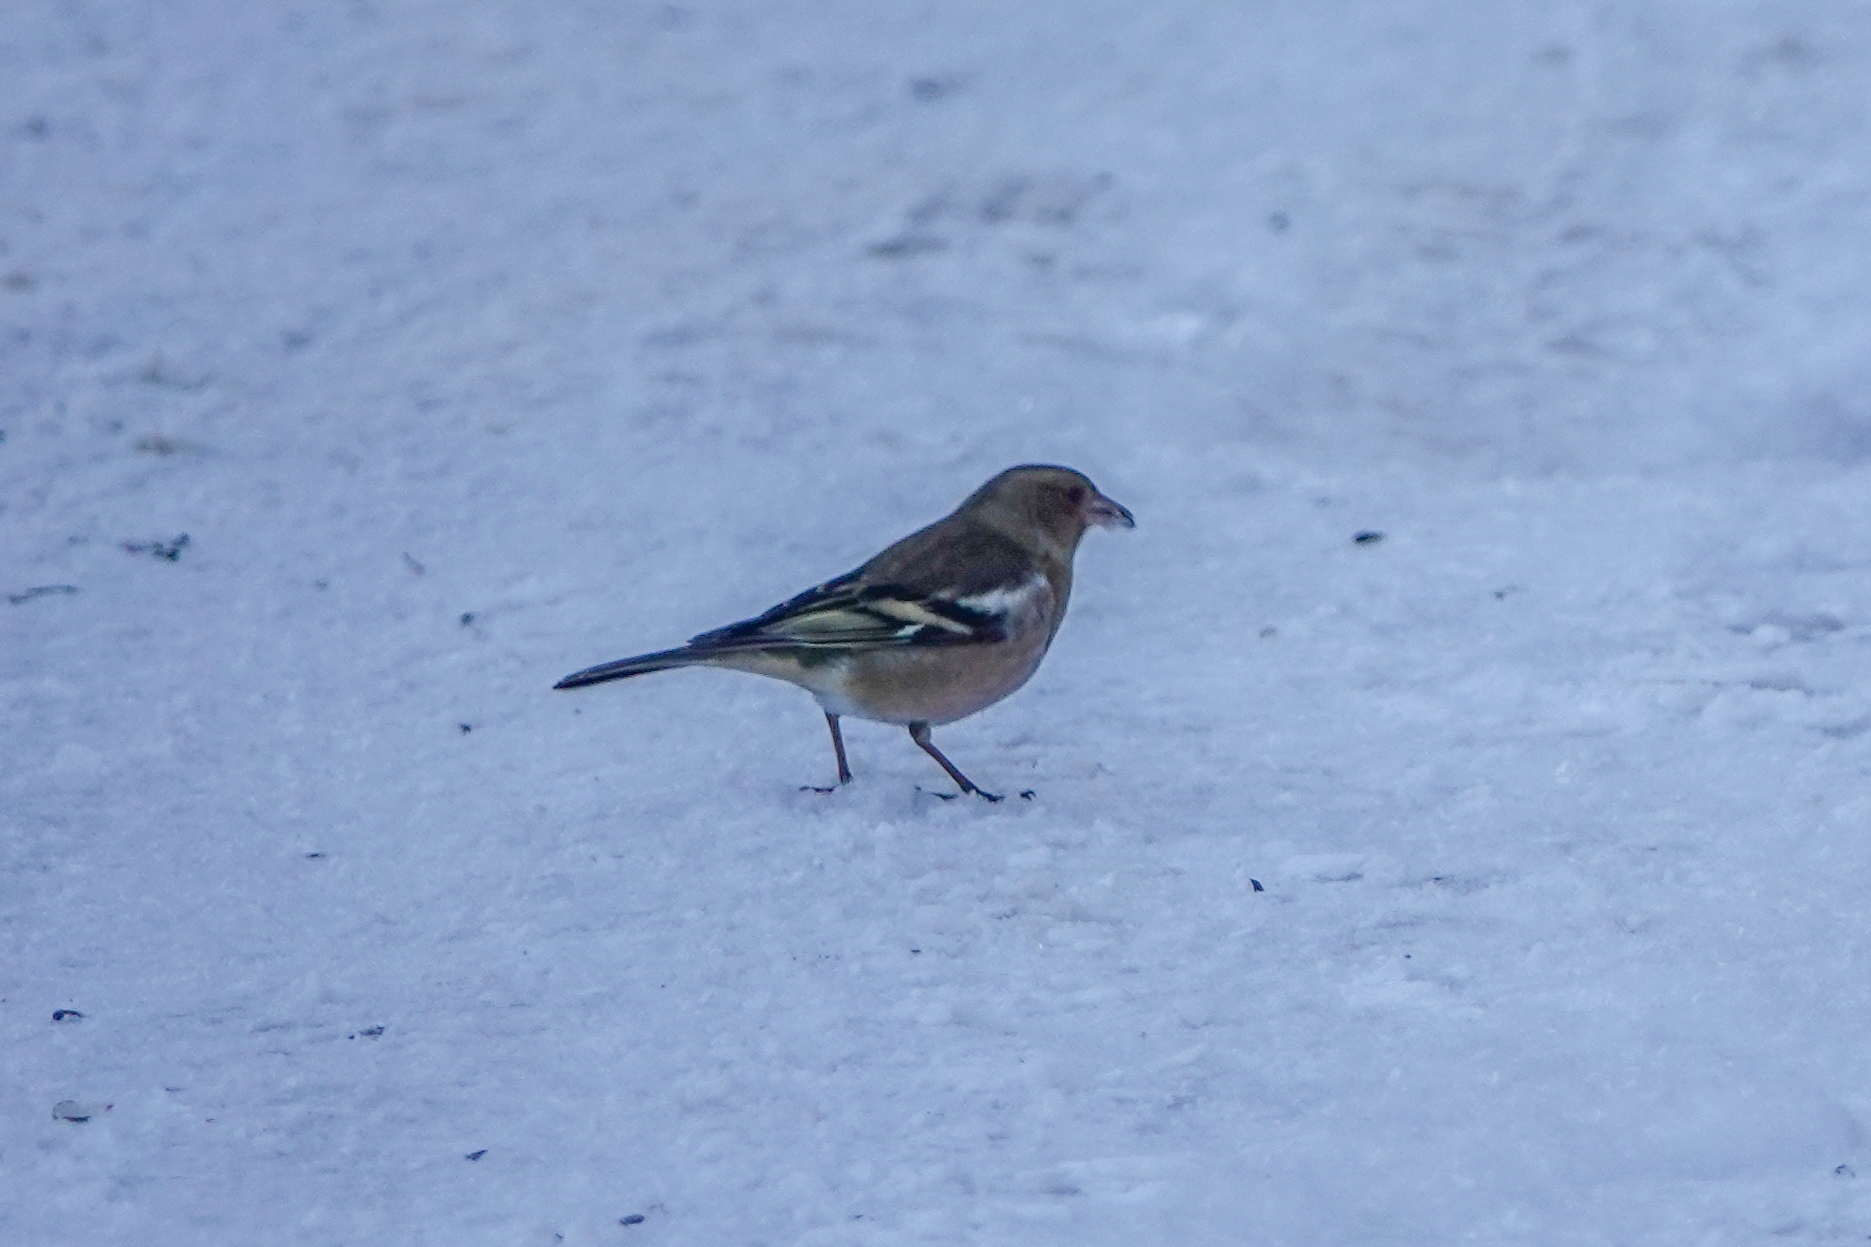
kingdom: Animalia
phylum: Chordata
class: Aves
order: Passeriformes
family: Fringillidae
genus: Fringilla
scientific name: Fringilla coelebs
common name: Common chaffinch
